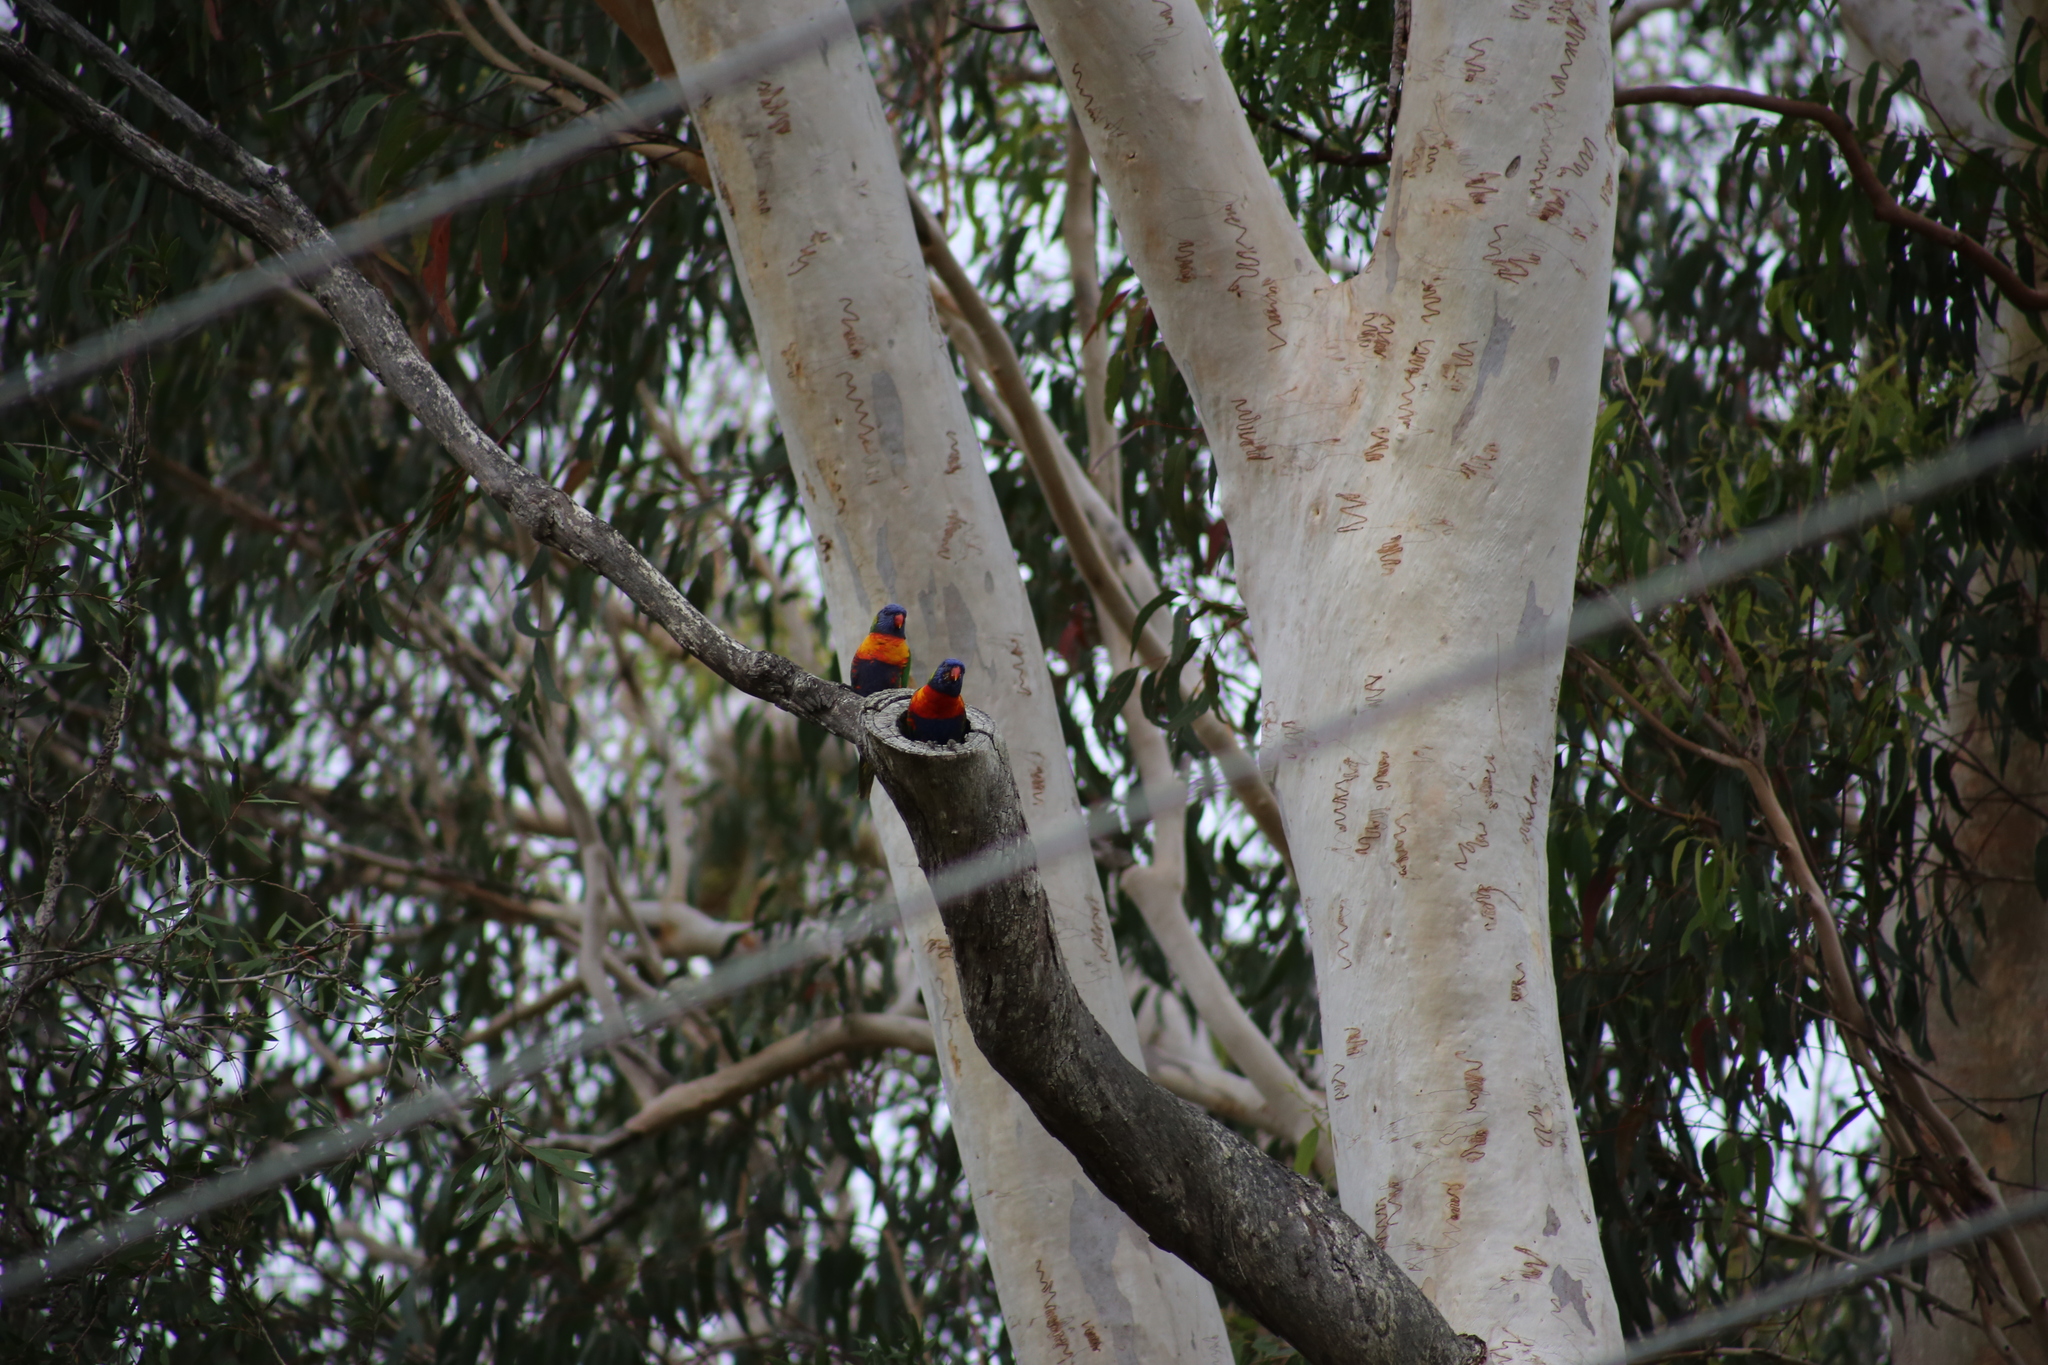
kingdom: Animalia
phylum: Chordata
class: Aves
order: Psittaciformes
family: Psittacidae
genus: Trichoglossus
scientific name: Trichoglossus haematodus
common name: Coconut lorikeet
